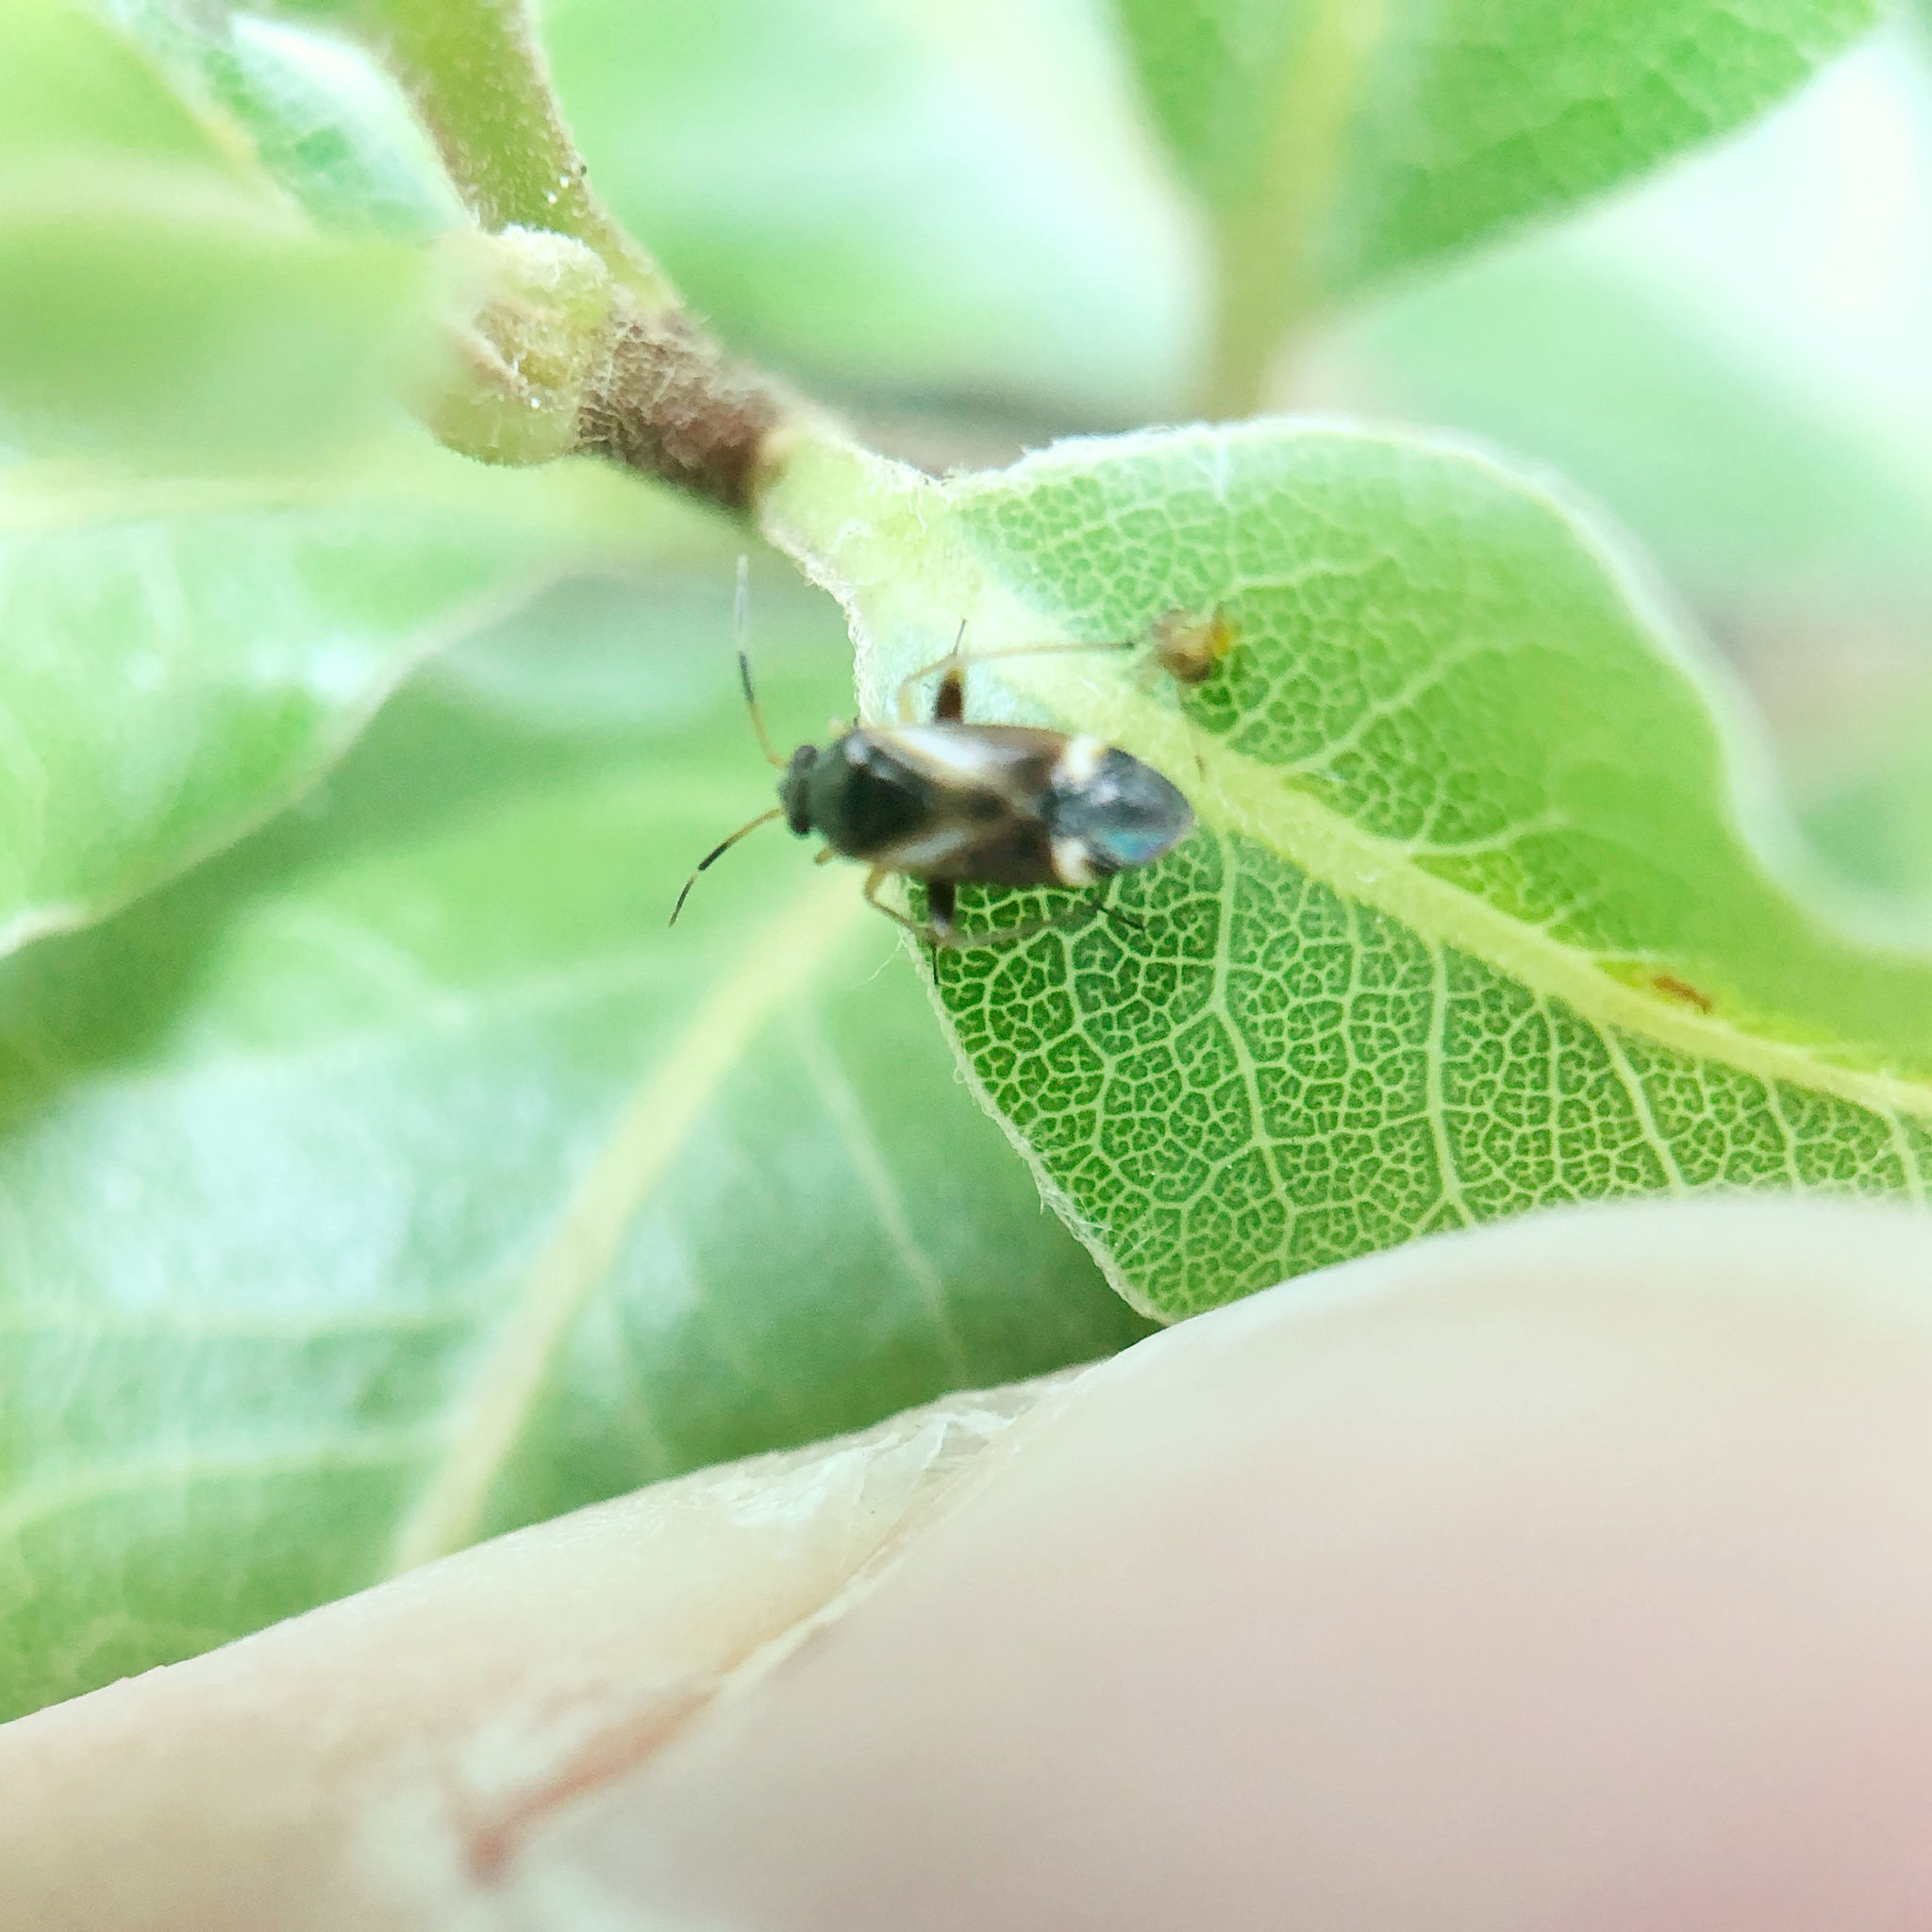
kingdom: Animalia
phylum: Arthropoda
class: Insecta
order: Hemiptera
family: Miridae
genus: Ausejanus
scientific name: Ausejanus albisignatus
